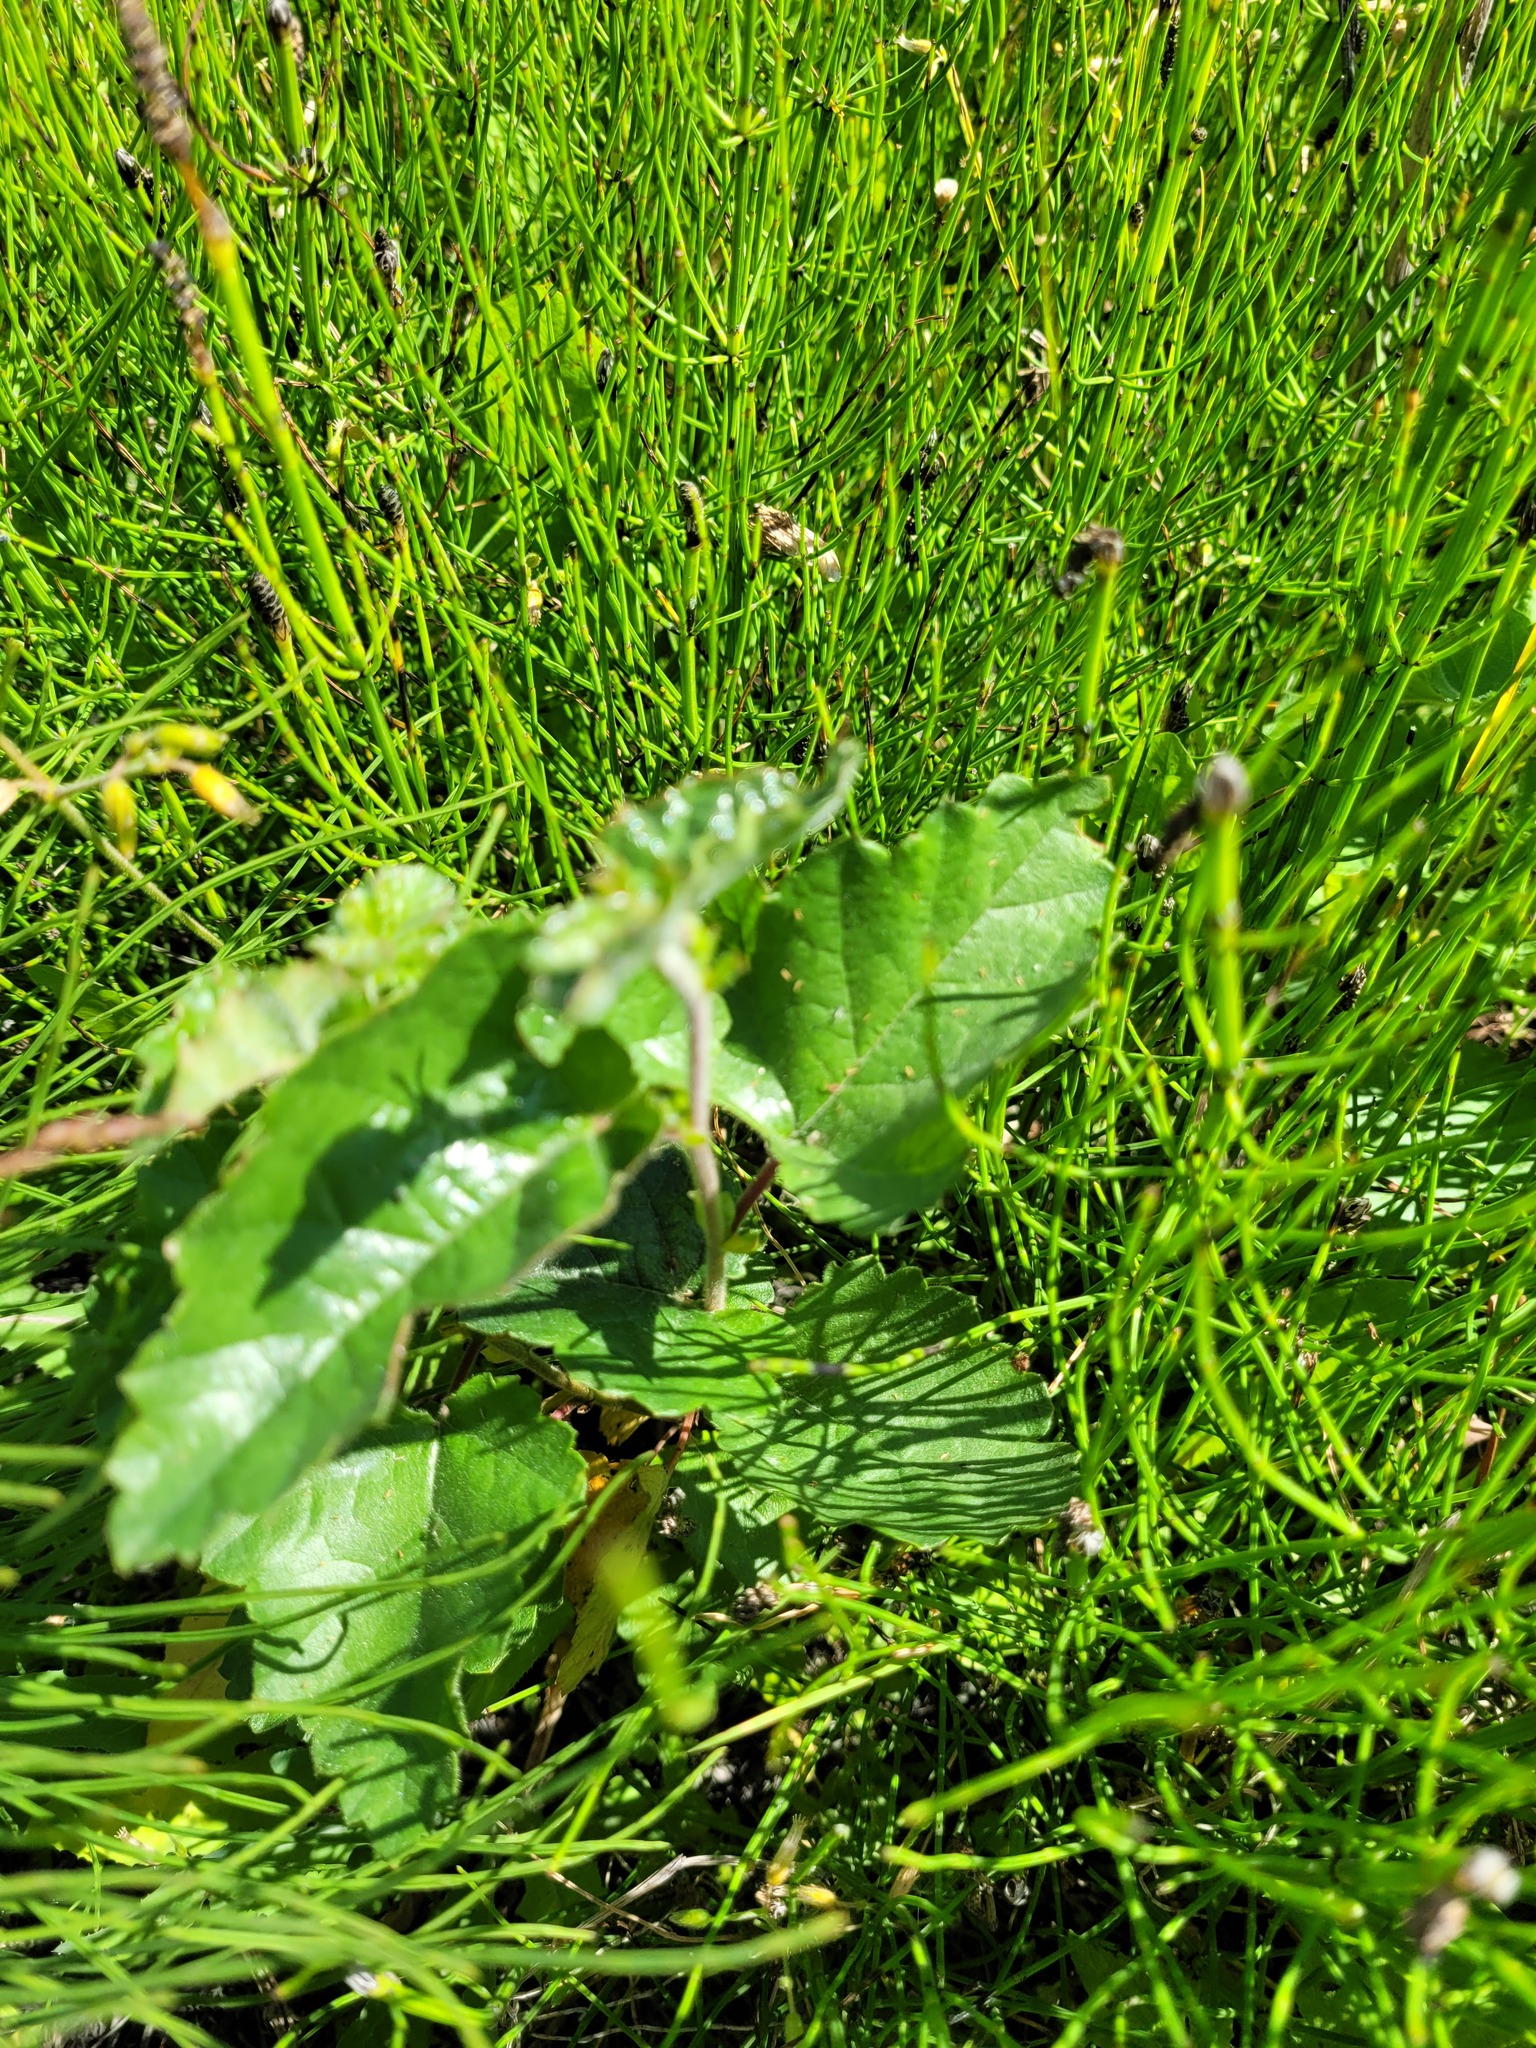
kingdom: Plantae
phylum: Tracheophyta
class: Magnoliopsida
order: Fagales
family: Betulaceae
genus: Betula
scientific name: Betula pubescens
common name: Downy birch
